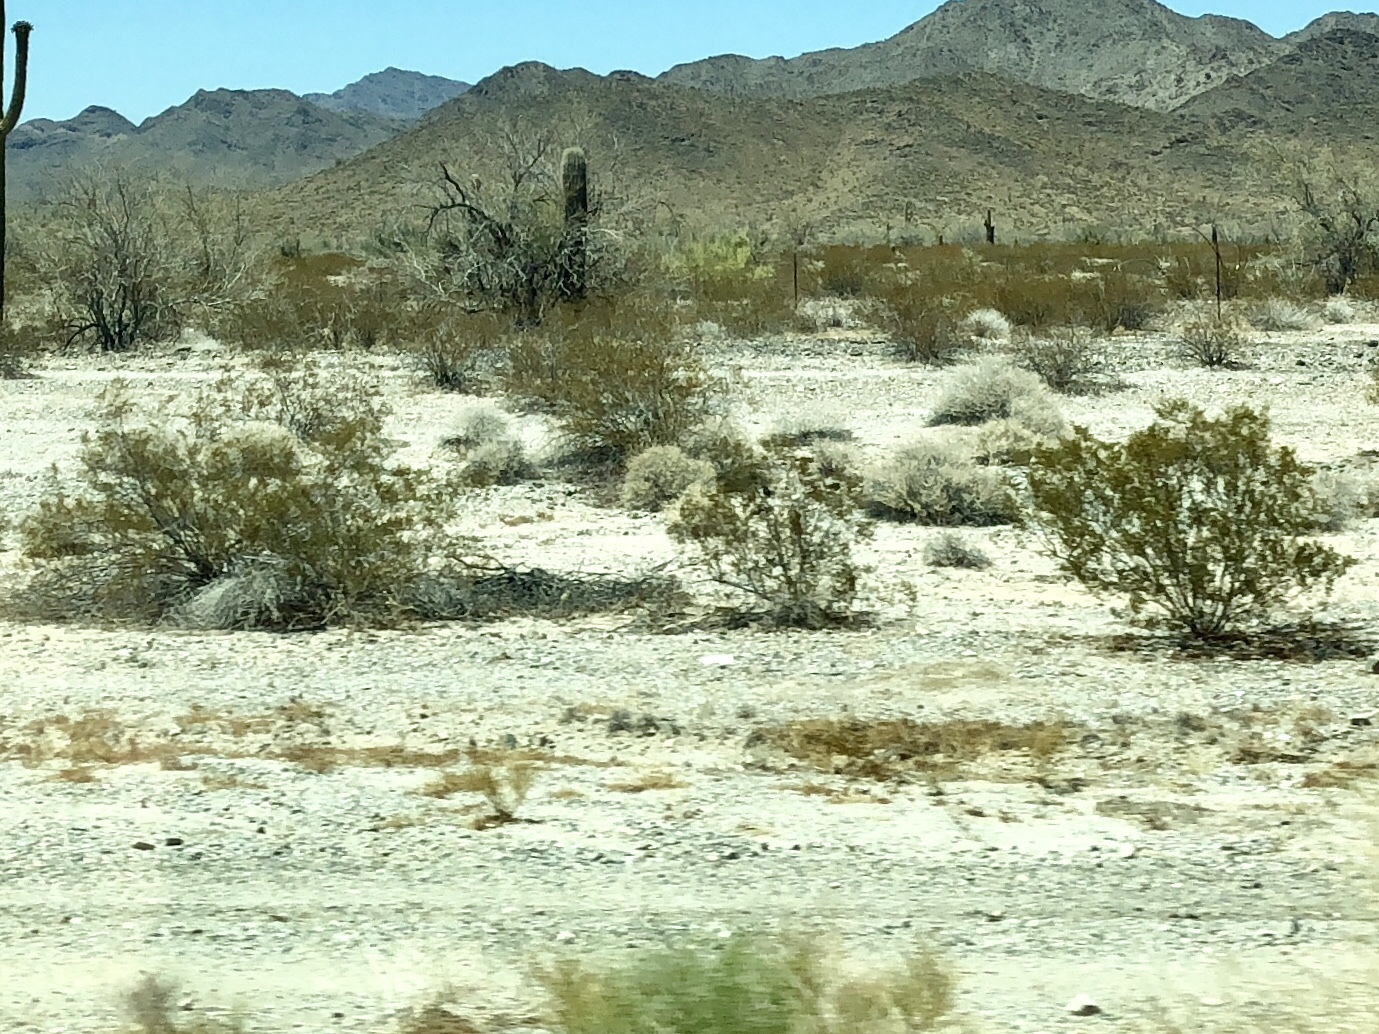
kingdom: Plantae
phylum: Tracheophyta
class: Magnoliopsida
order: Zygophyllales
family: Zygophyllaceae
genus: Larrea
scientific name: Larrea tridentata
